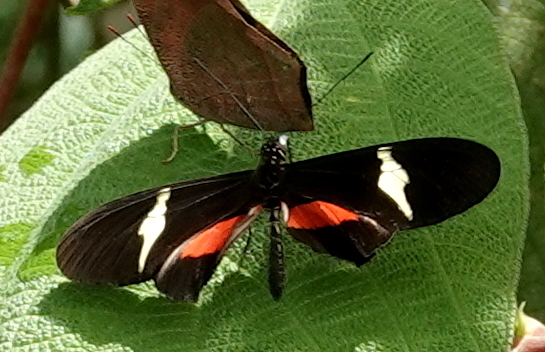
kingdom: Animalia
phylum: Arthropoda
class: Insecta
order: Lepidoptera
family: Nymphalidae
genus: Heliconius
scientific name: Heliconius clysonymus
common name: Clysonymus longwing
